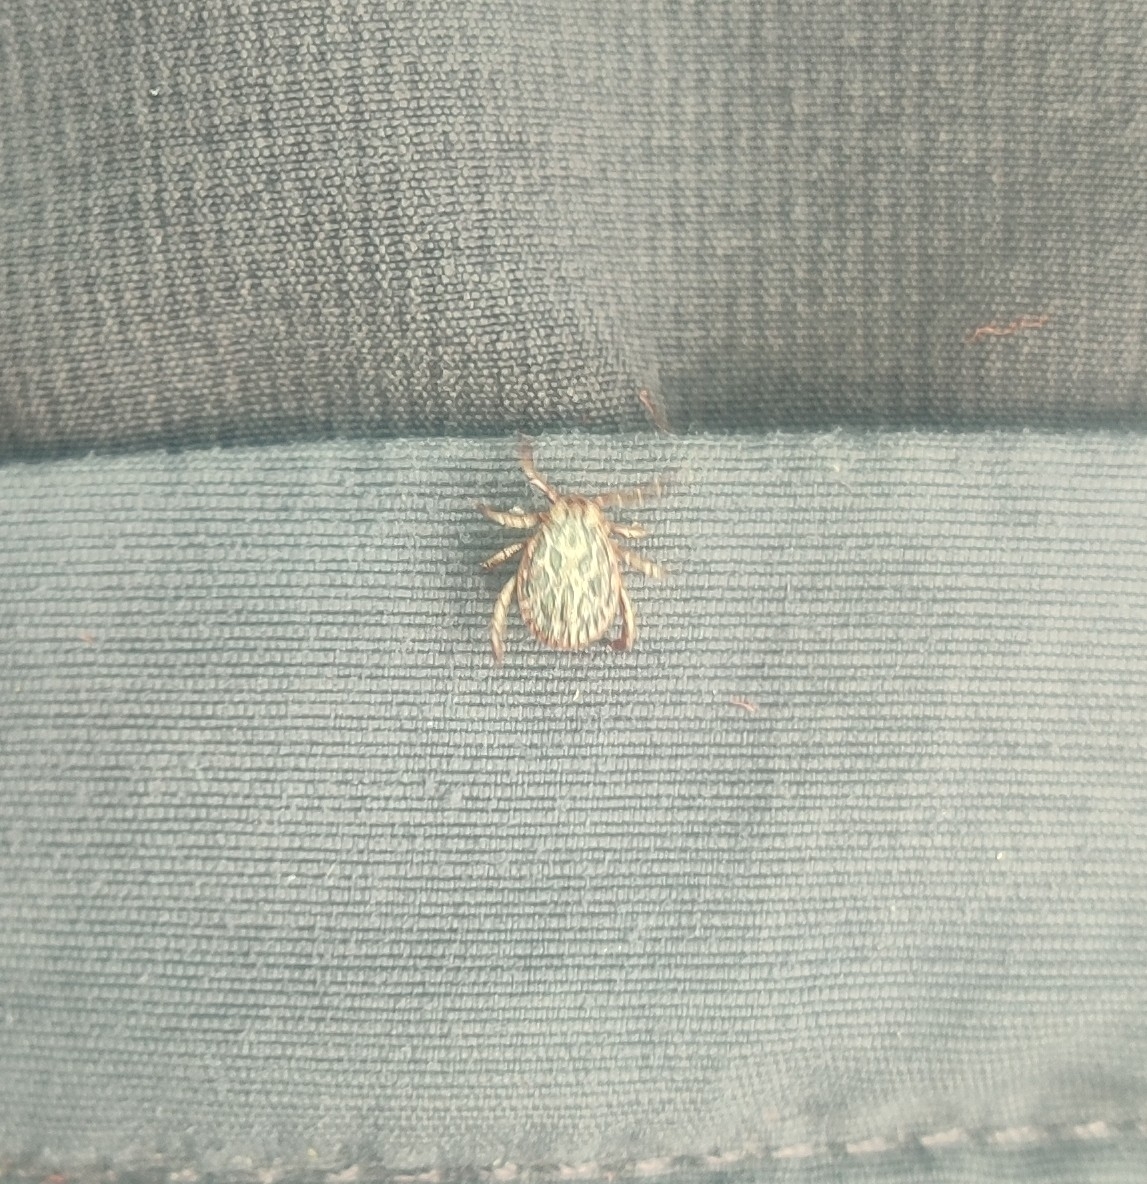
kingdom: Animalia
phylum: Arthropoda
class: Arachnida
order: Ixodida
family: Ixodidae
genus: Dermacentor
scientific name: Dermacentor marginatus
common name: Ornate sheep tick
